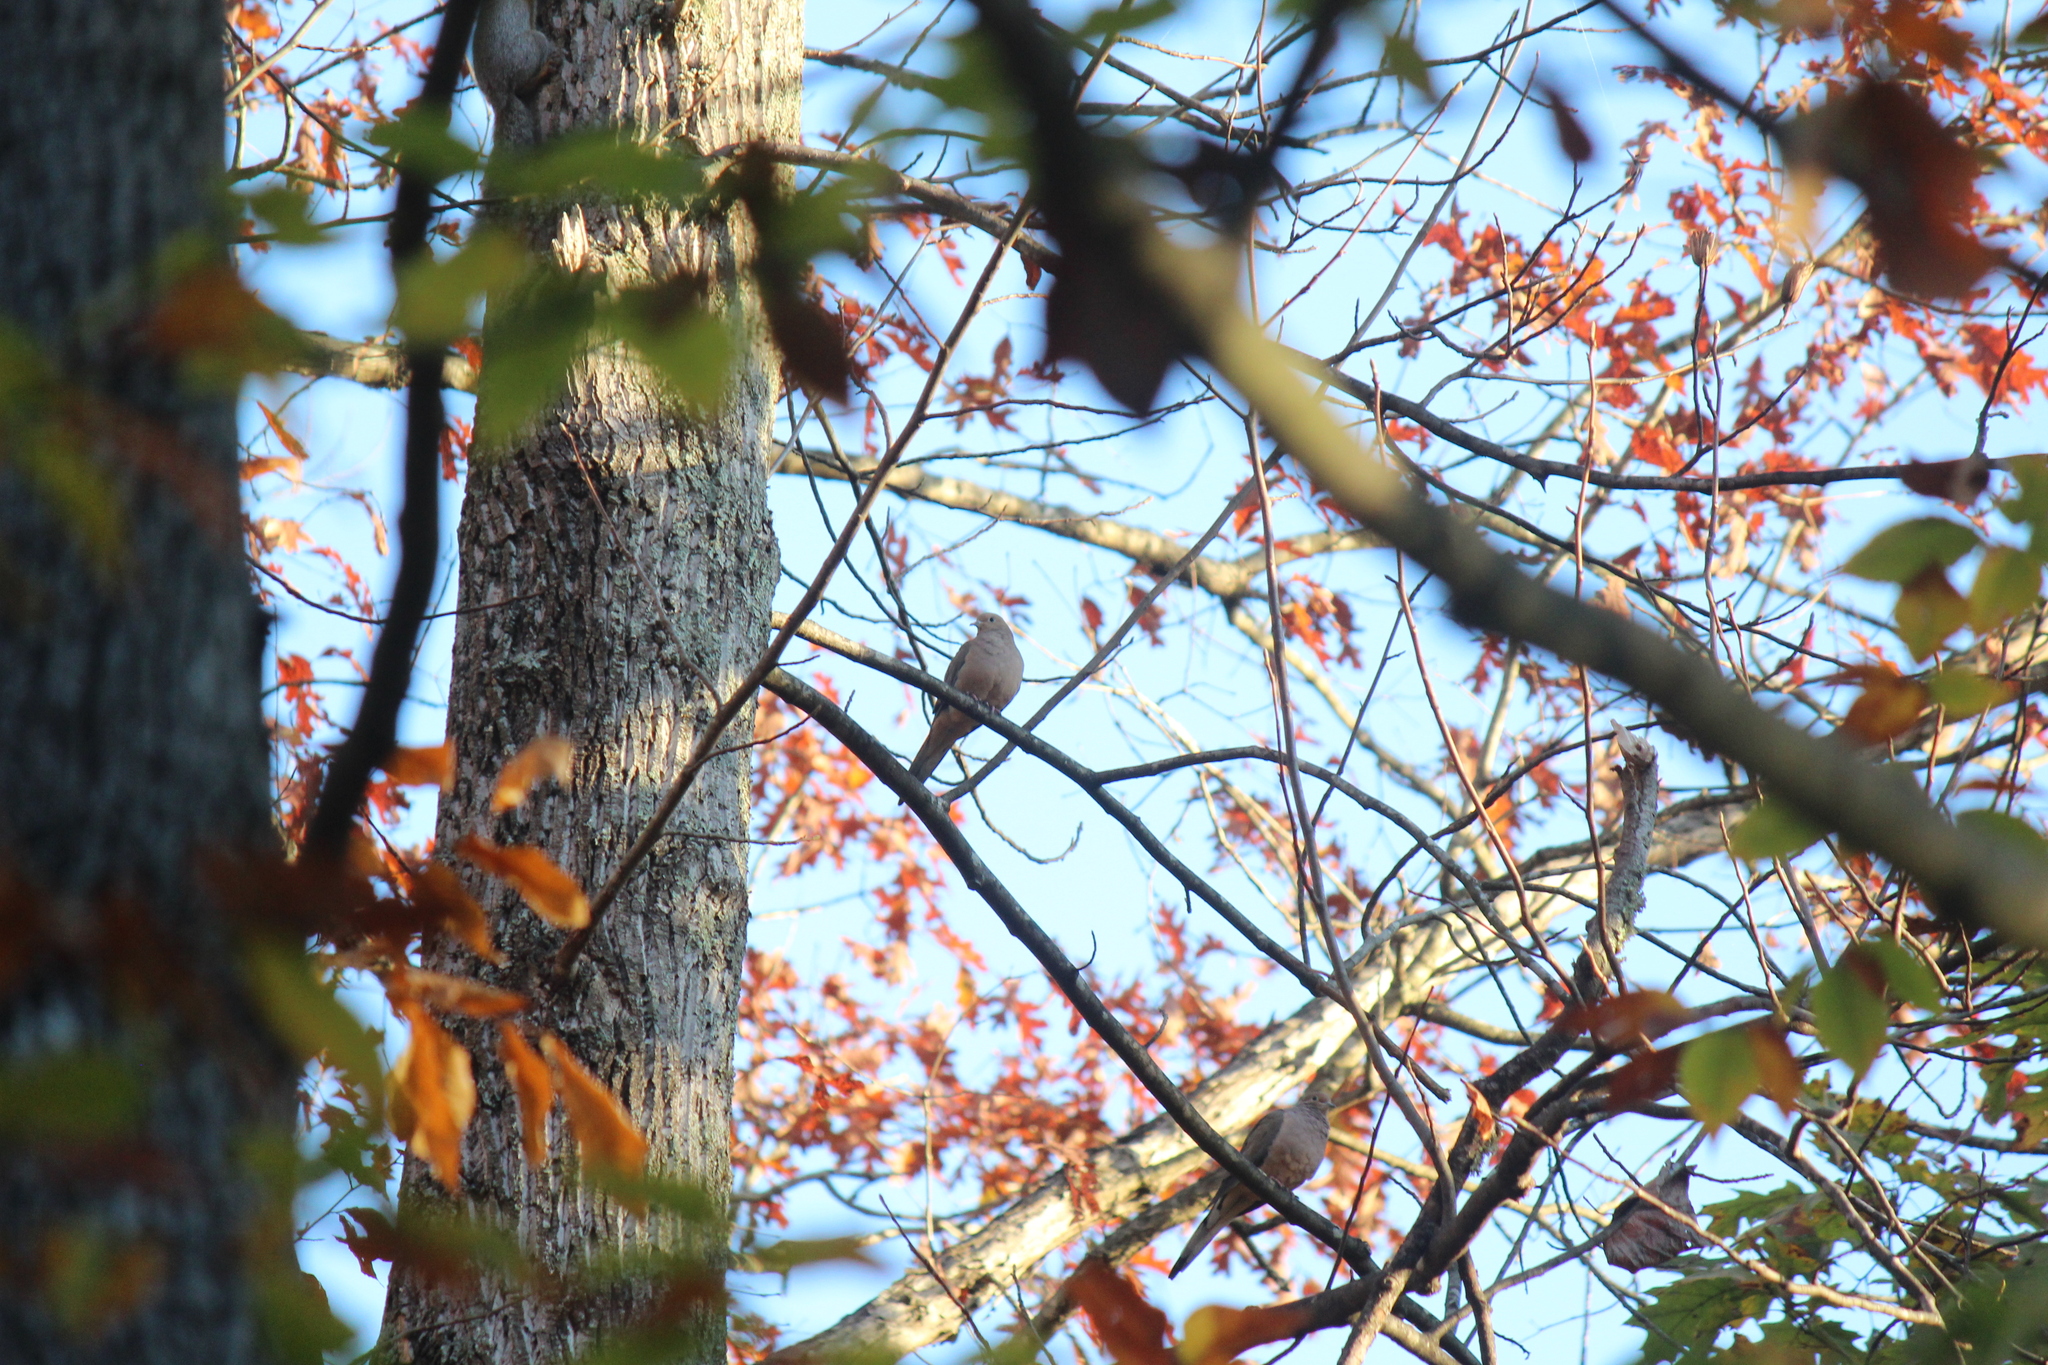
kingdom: Animalia
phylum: Chordata
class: Aves
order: Columbiformes
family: Columbidae
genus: Zenaida
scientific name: Zenaida macroura
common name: Mourning dove
